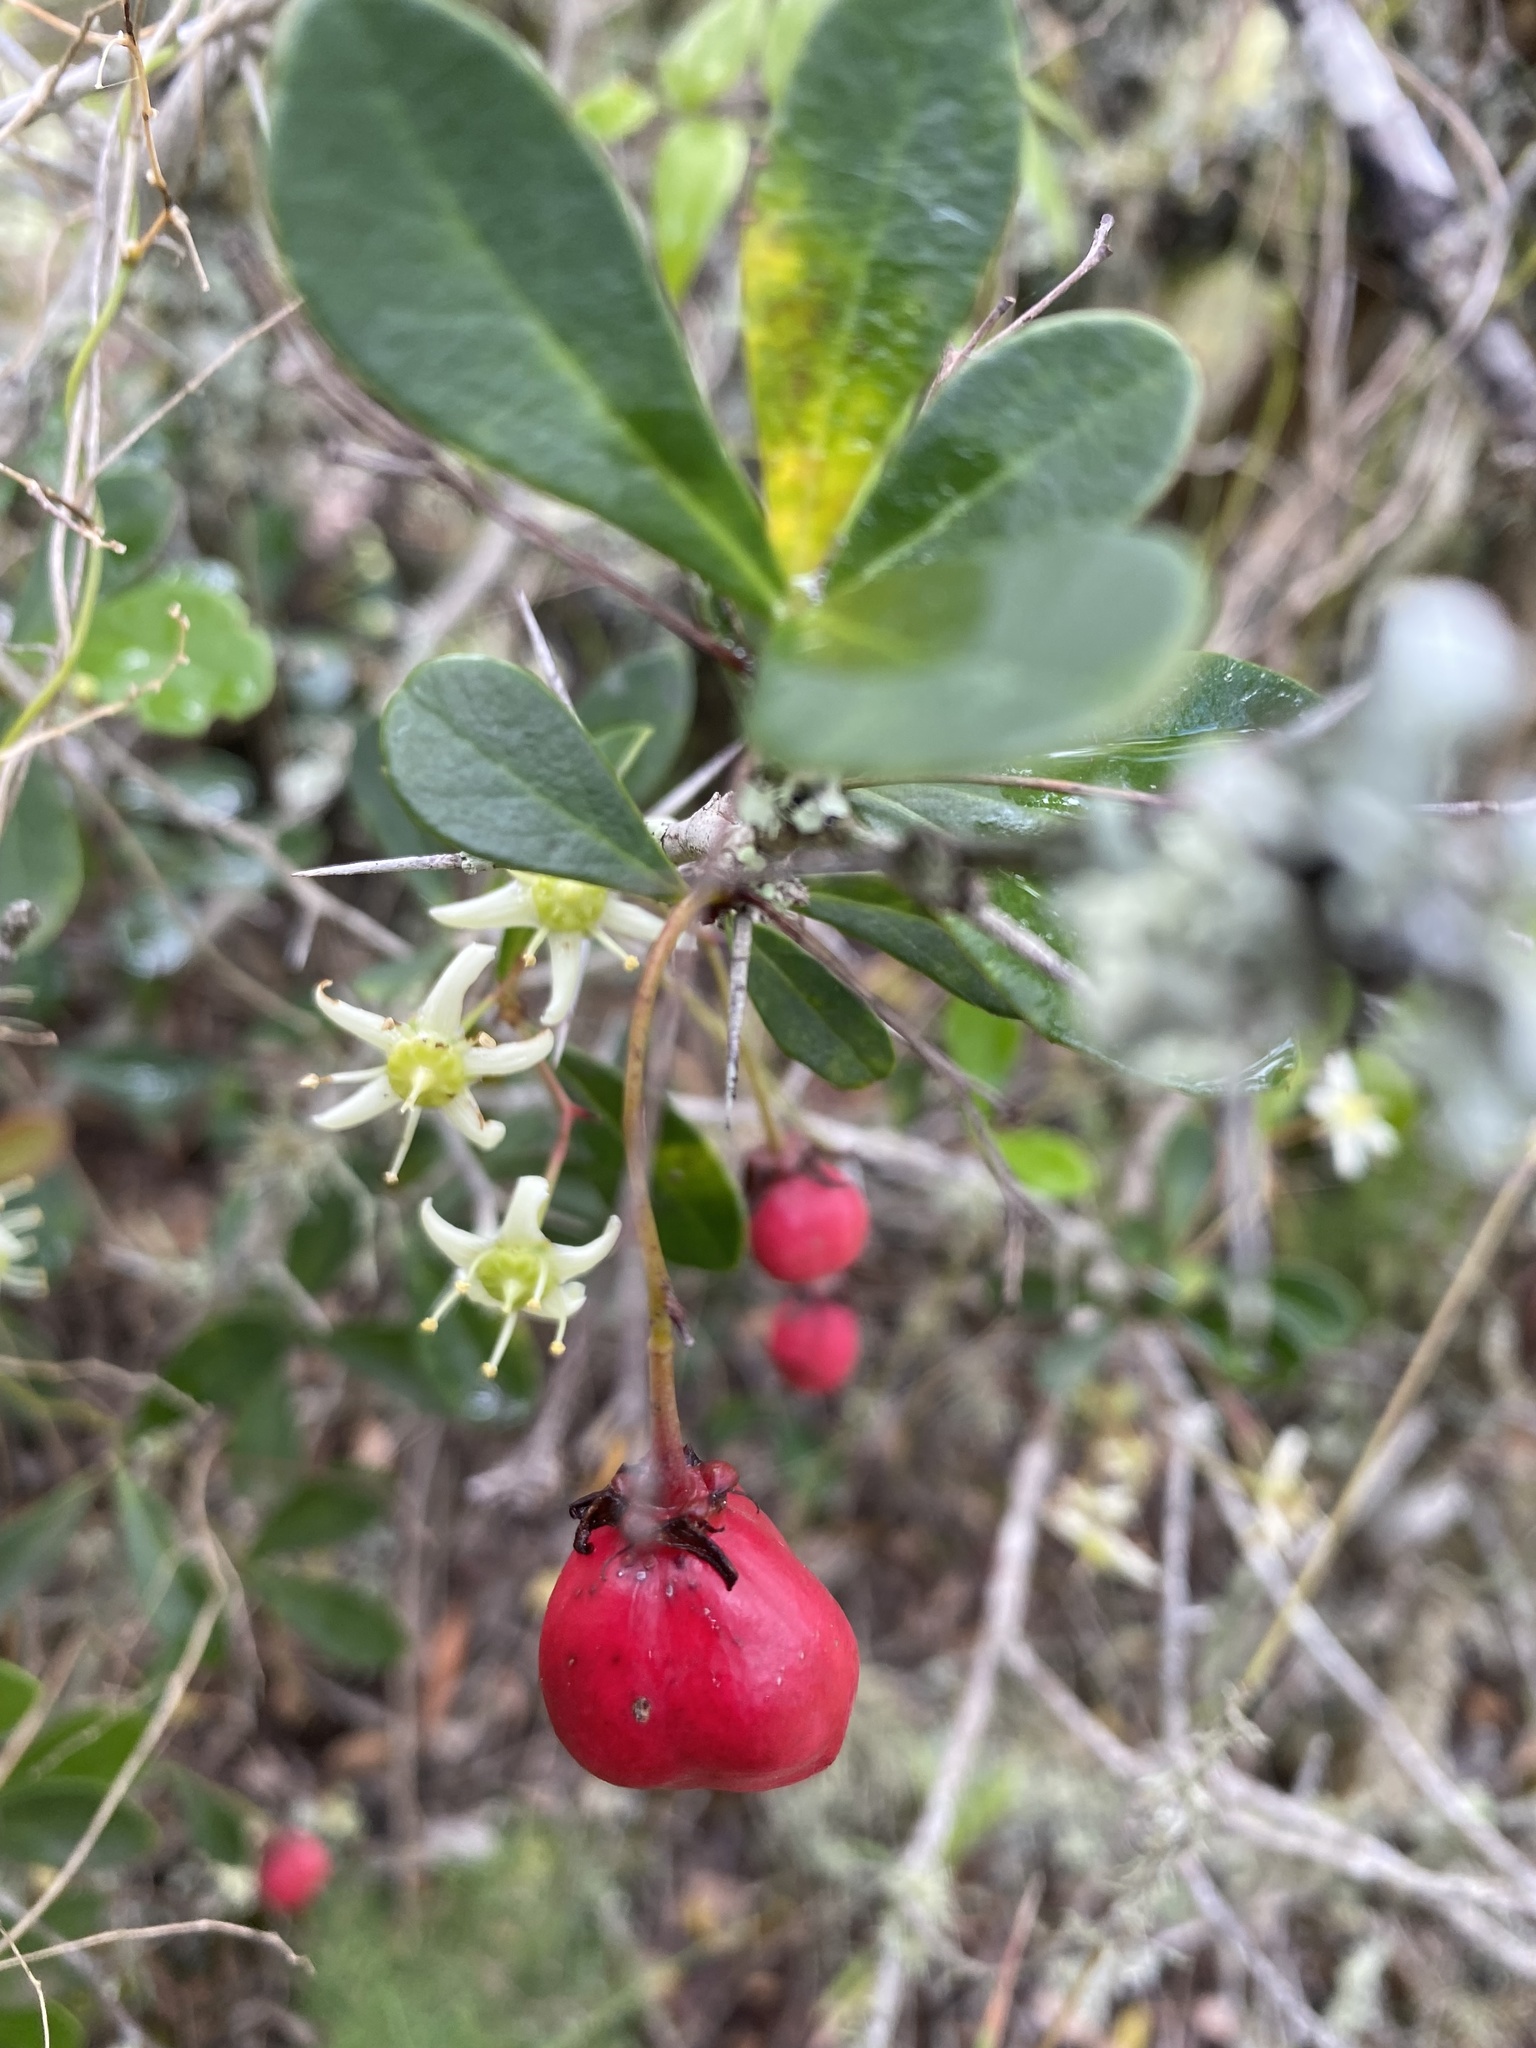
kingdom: Plantae
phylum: Tracheophyta
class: Magnoliopsida
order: Celastrales
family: Celastraceae
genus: Putterlickia
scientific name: Putterlickia pyracantha
